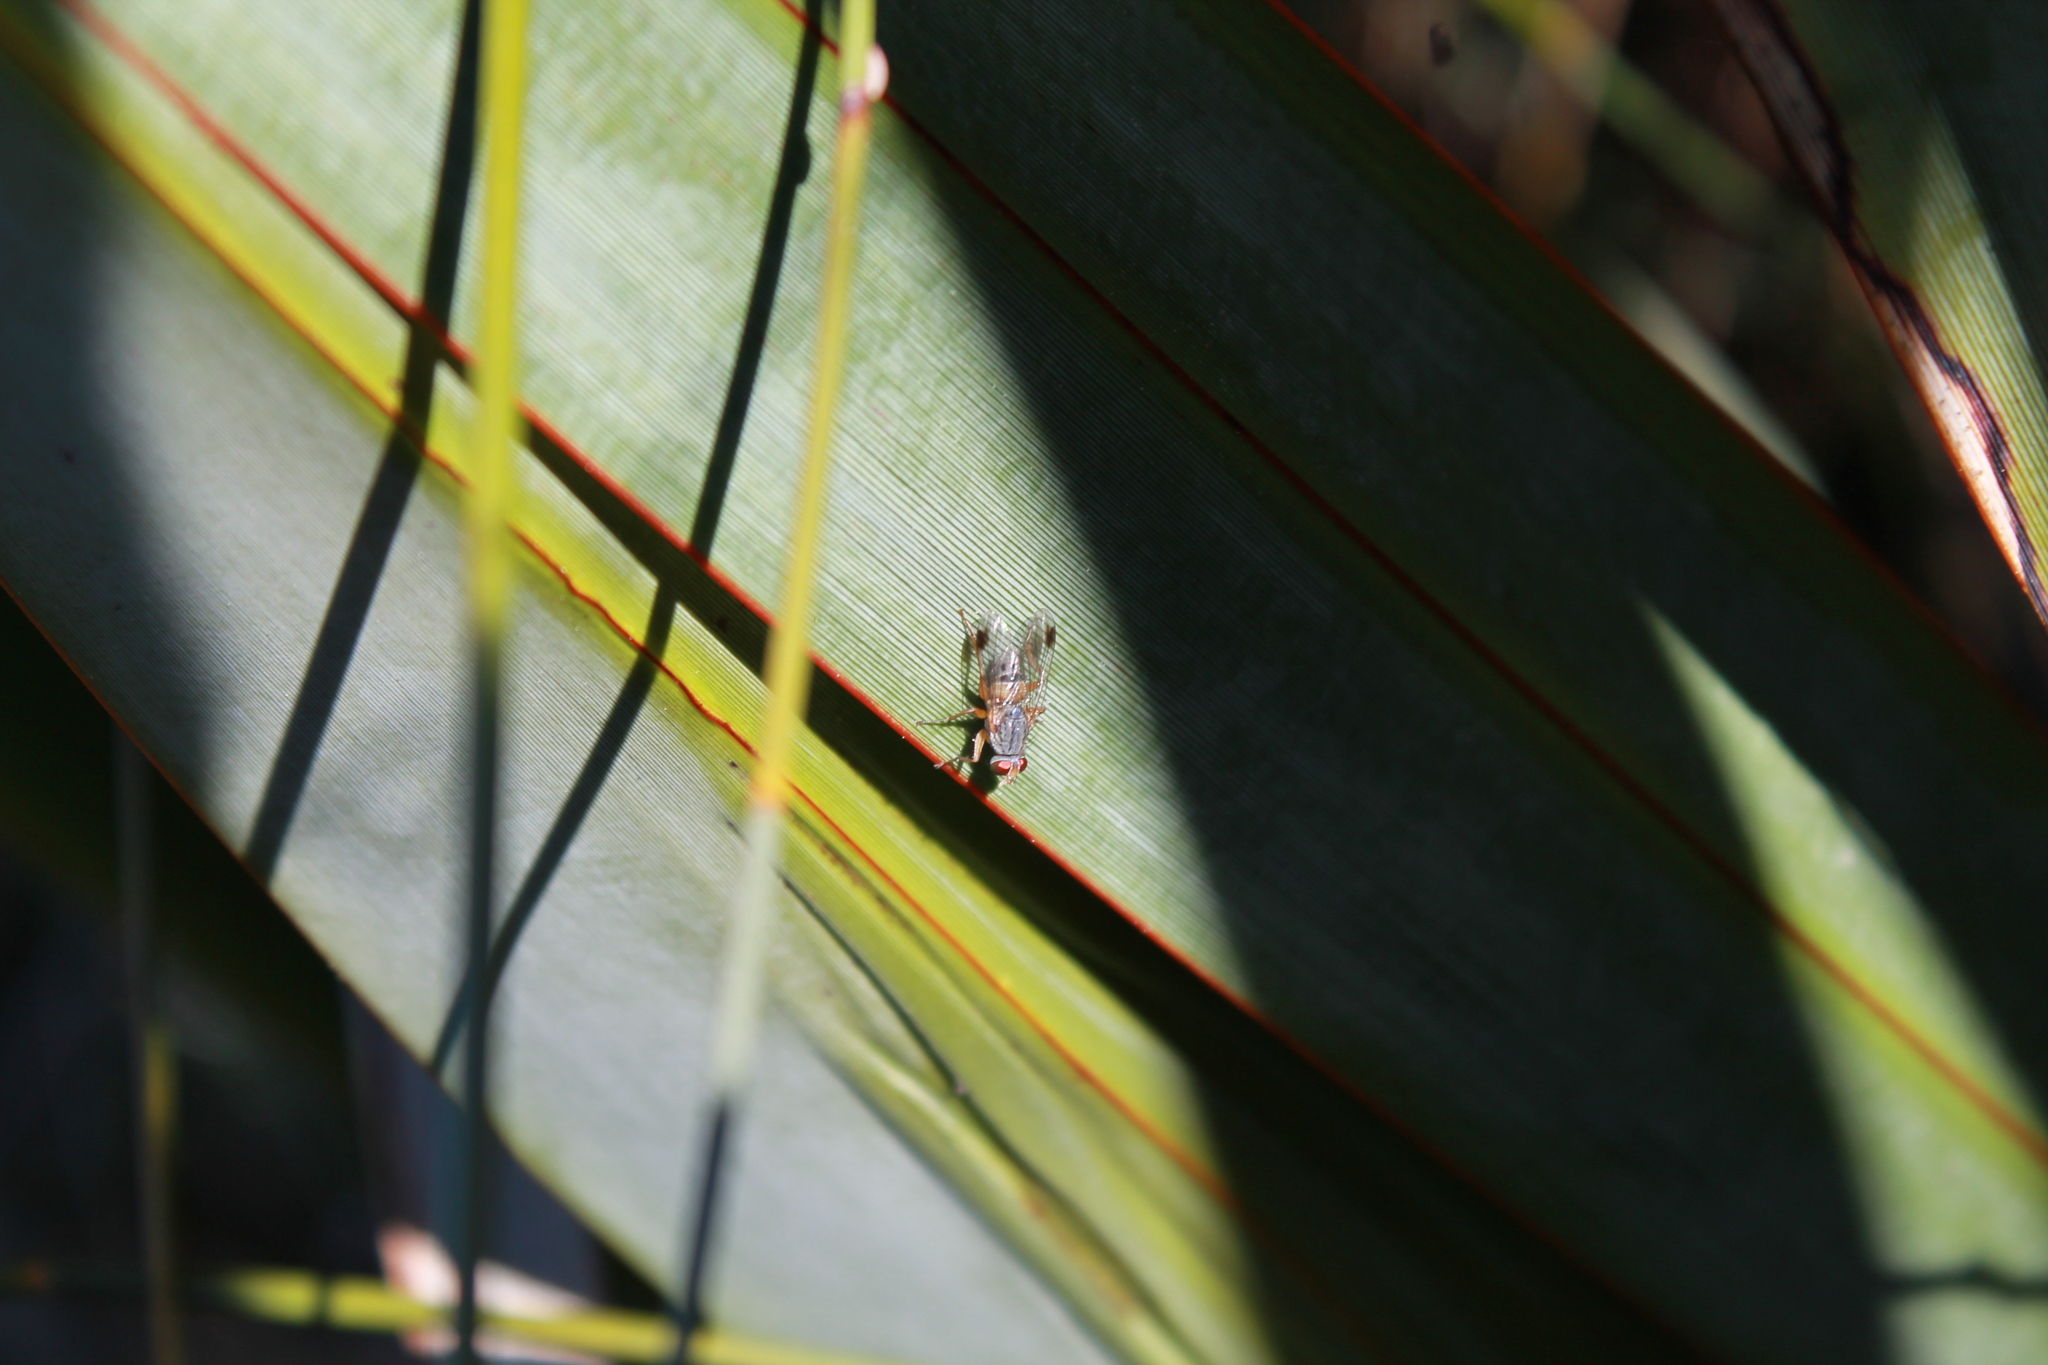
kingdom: Animalia
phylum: Arthropoda
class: Insecta
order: Diptera
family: Muscidae
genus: Pygophora
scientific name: Pygophora apicalis
